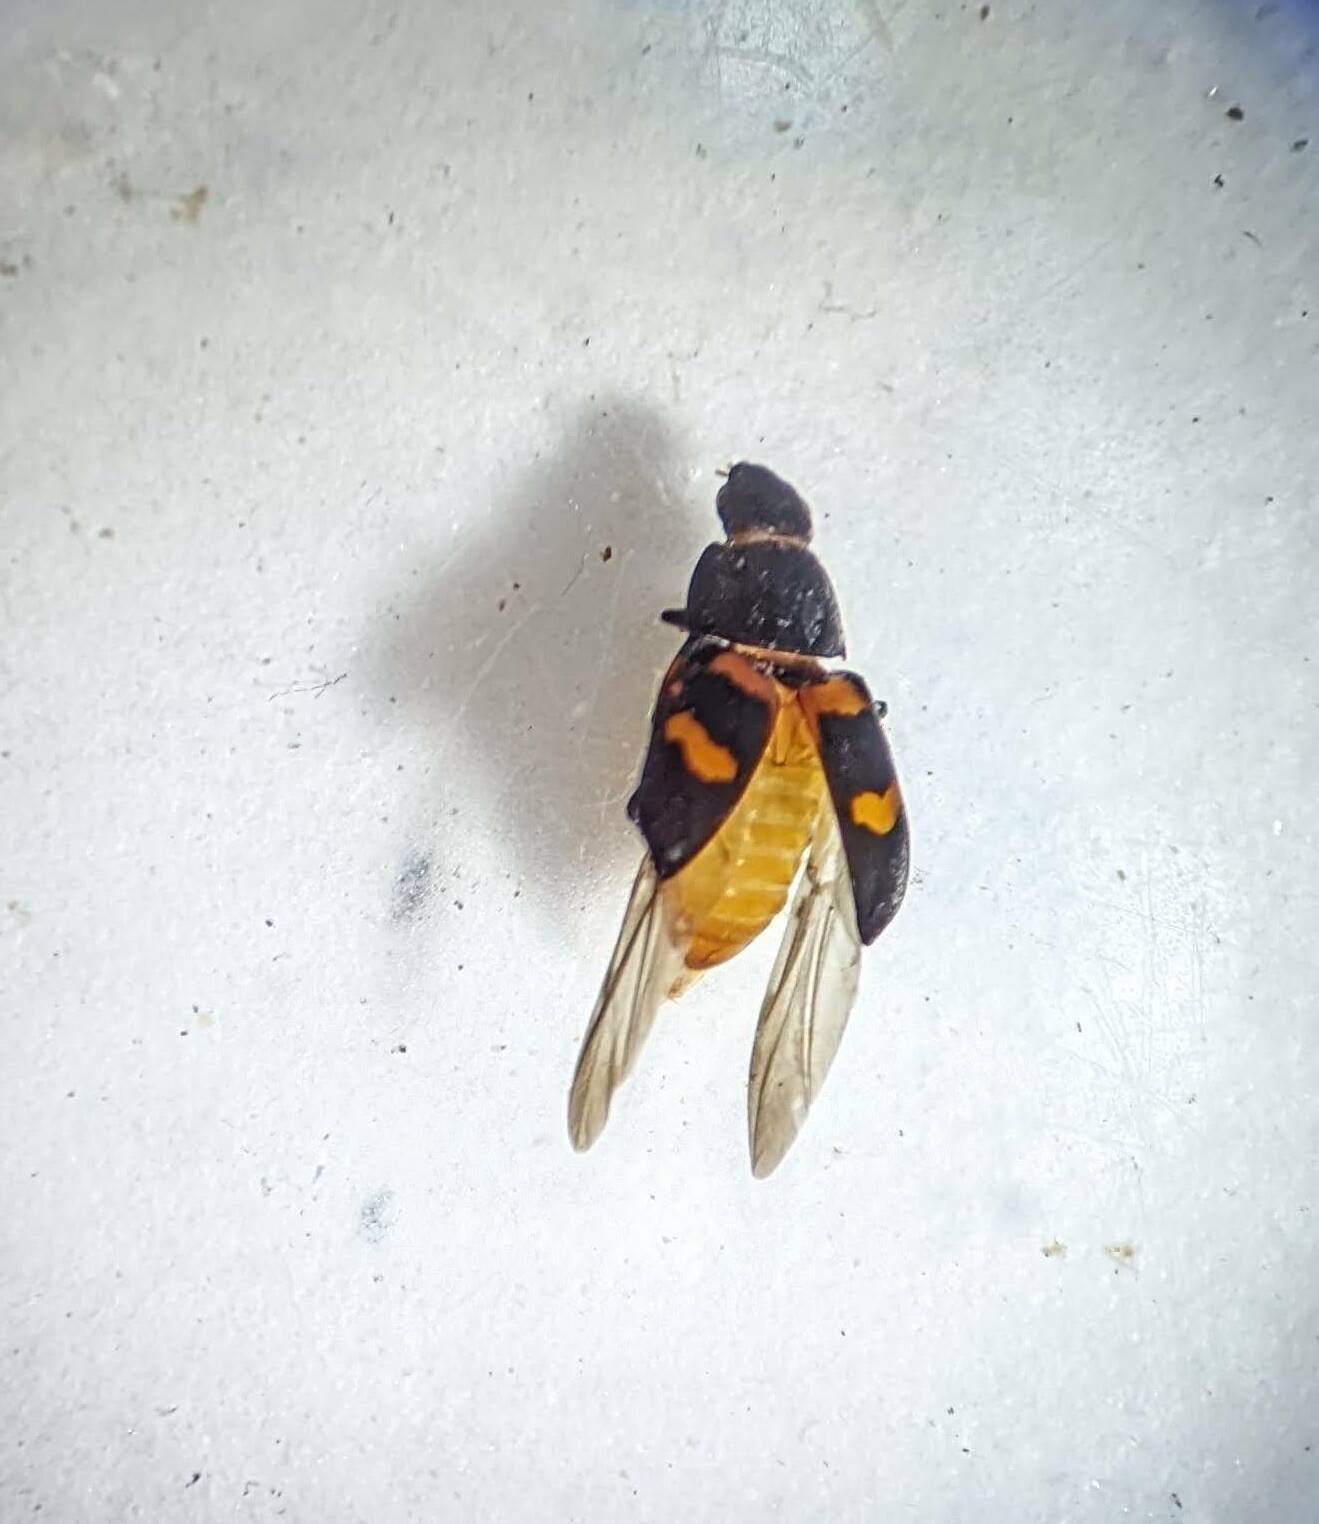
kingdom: Animalia
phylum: Arthropoda
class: Insecta
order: Coleoptera
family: Nitidulidae
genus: Glischrochilus
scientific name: Glischrochilus fasciatus
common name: Picnic beetle
